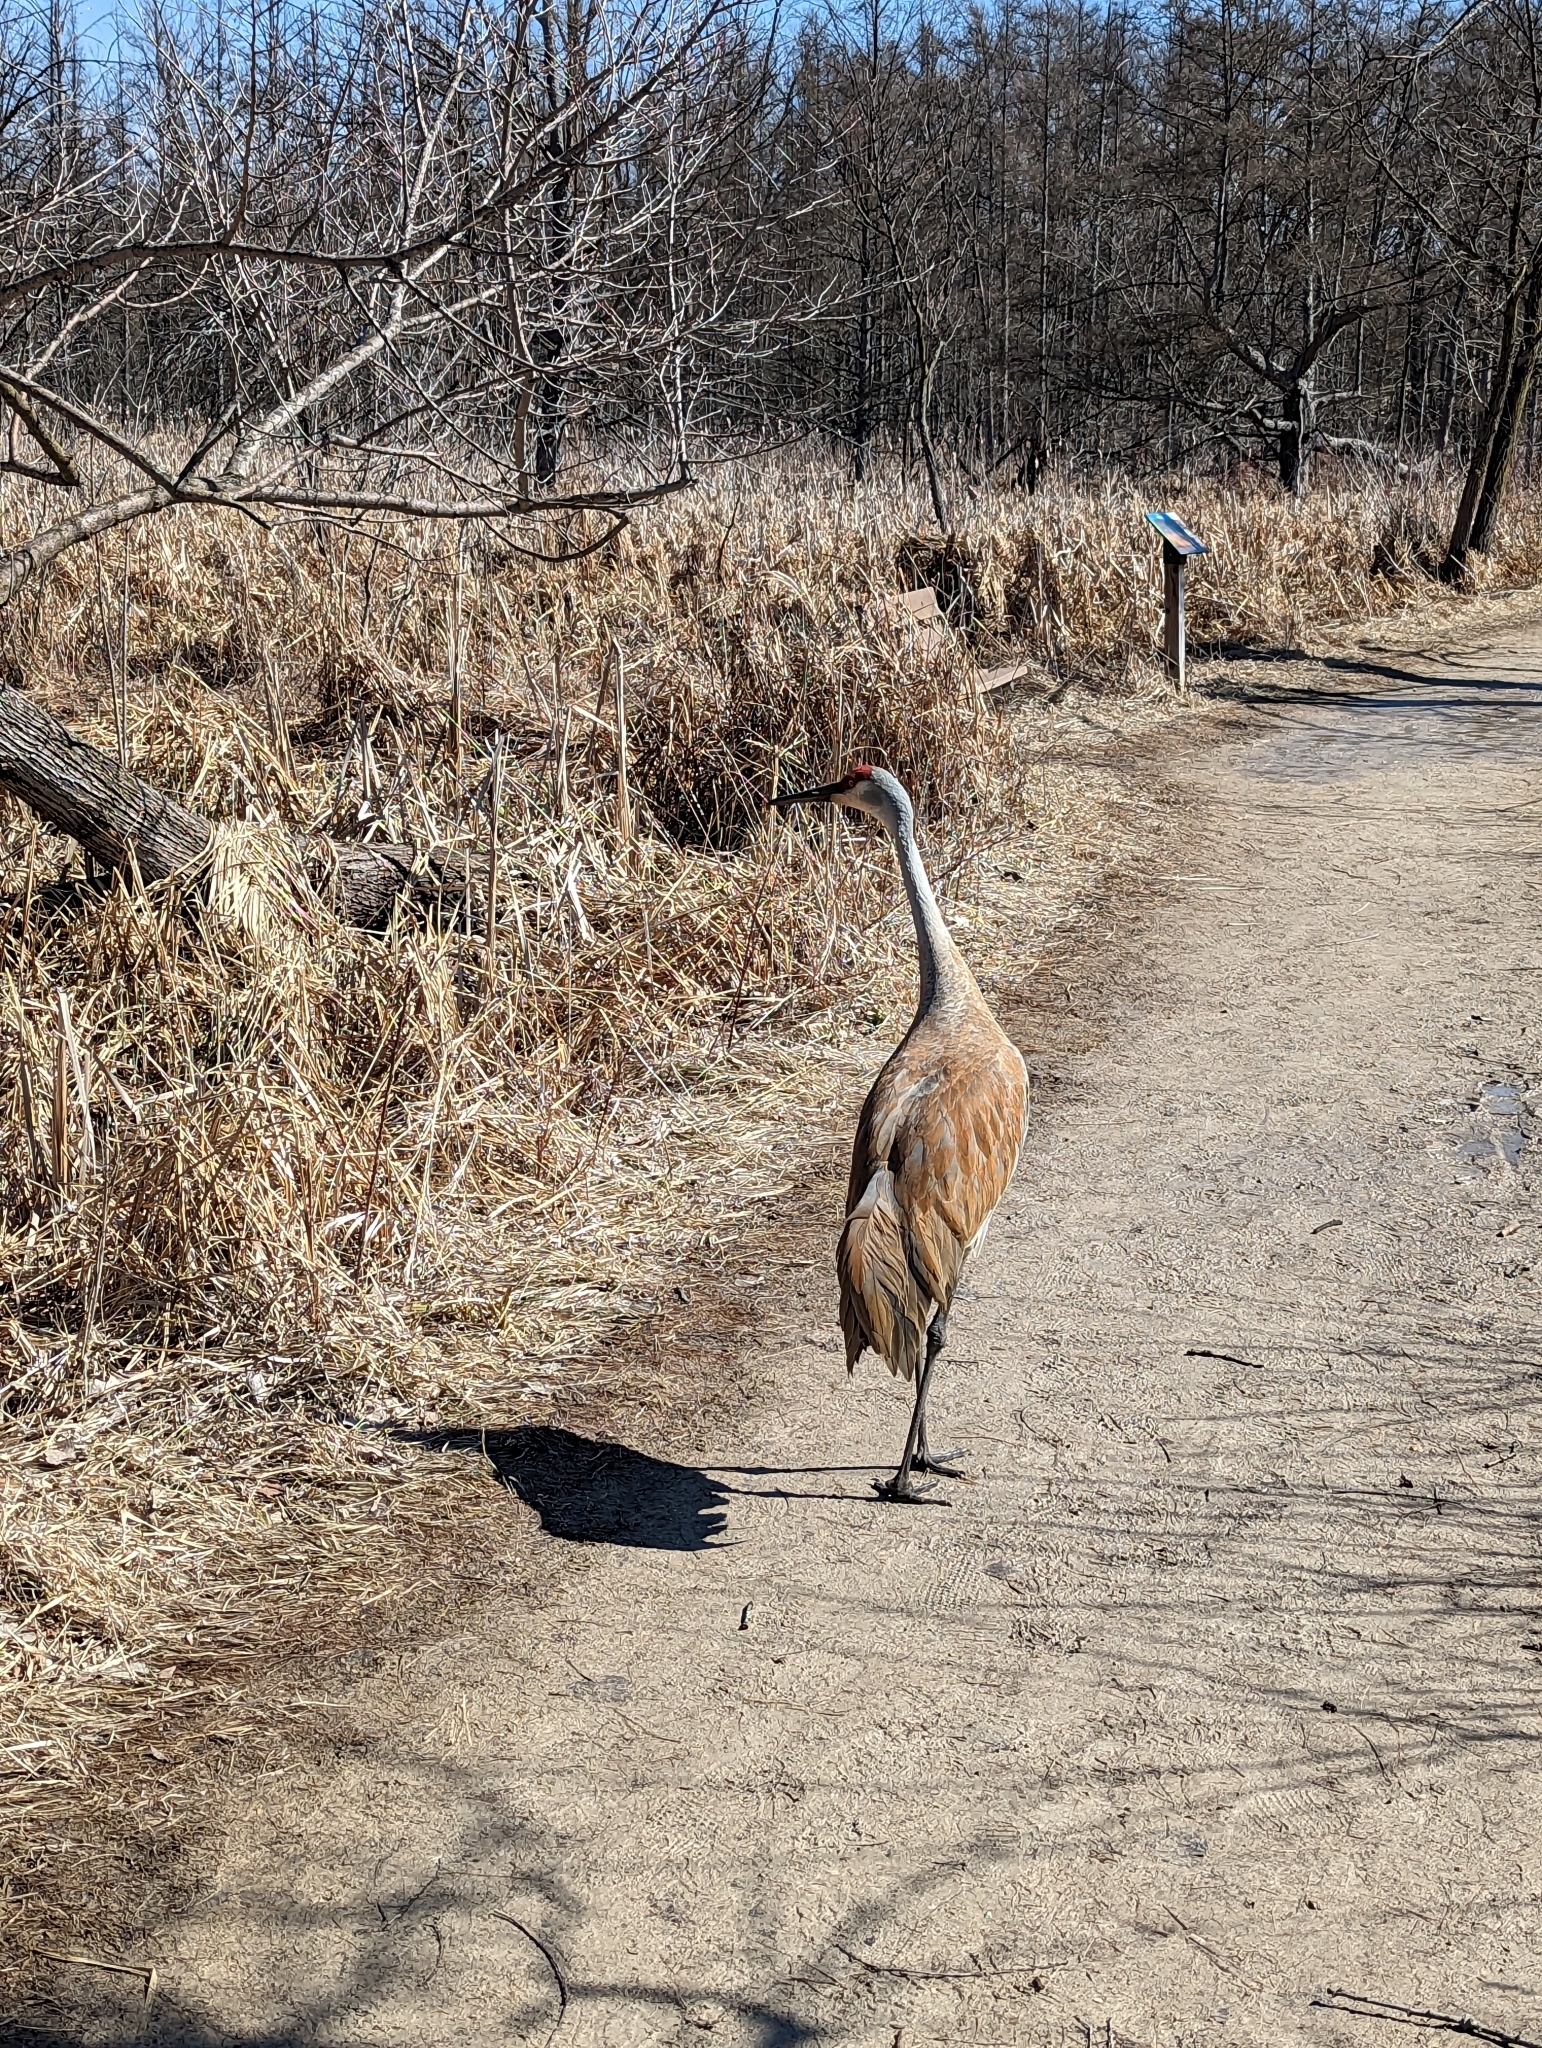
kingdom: Animalia
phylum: Chordata
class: Aves
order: Gruiformes
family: Gruidae
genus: Grus
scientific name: Grus canadensis
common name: Sandhill crane
